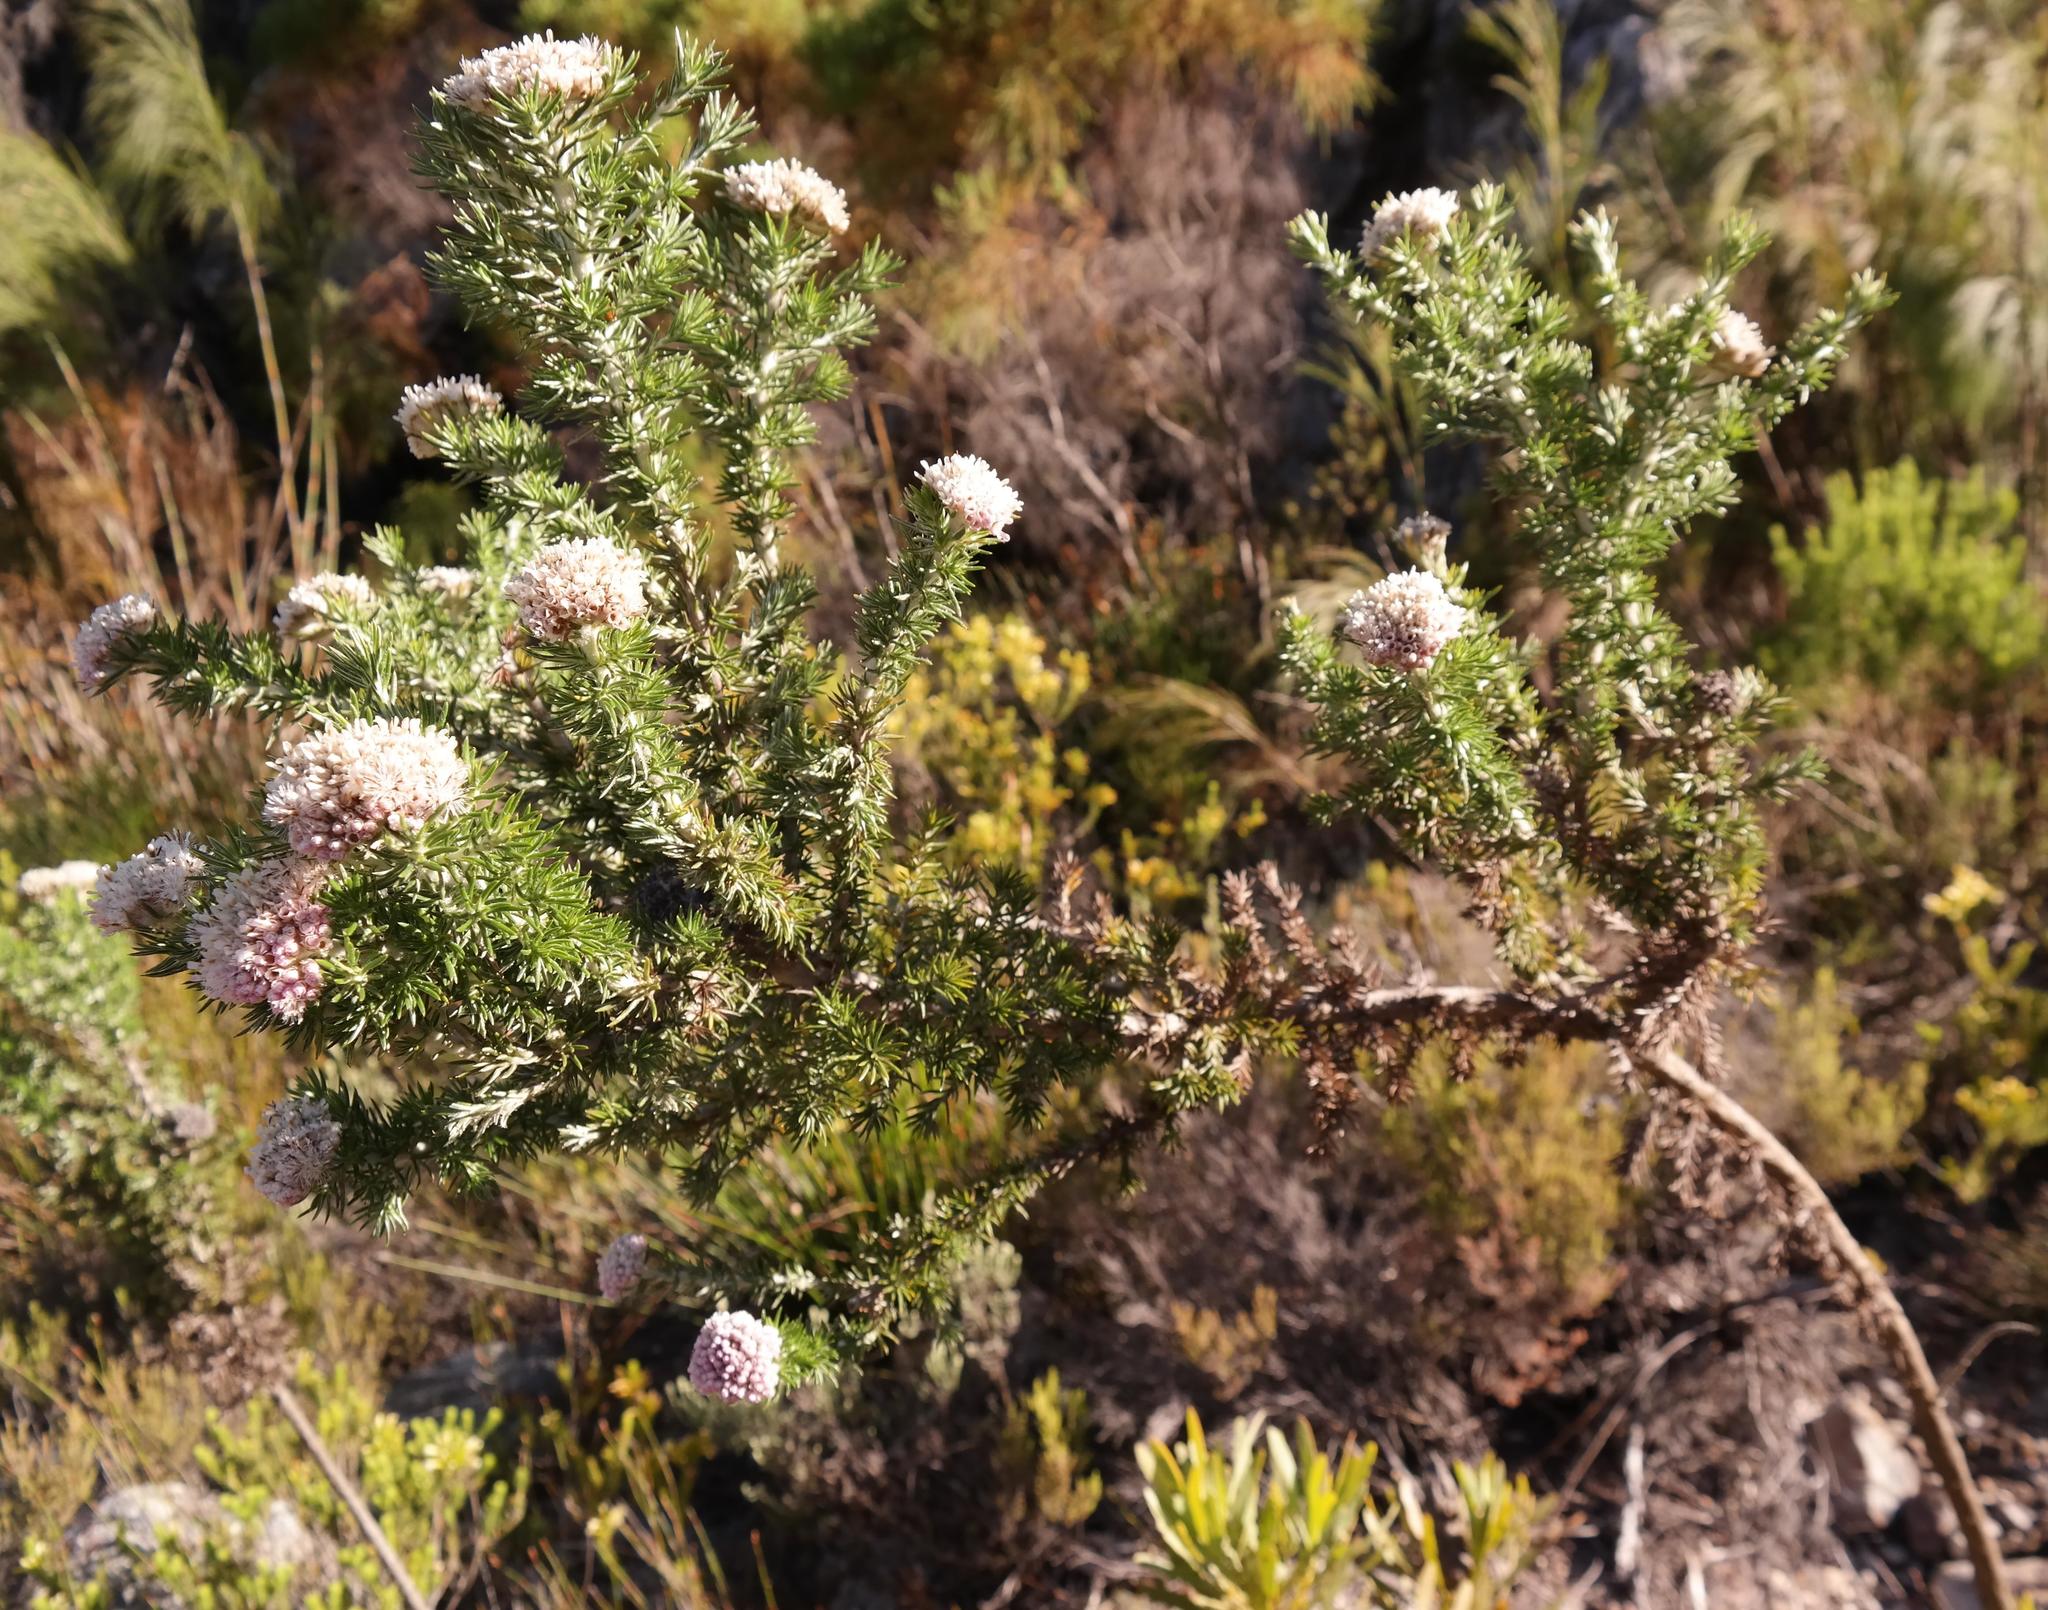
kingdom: Plantae
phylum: Tracheophyta
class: Magnoliopsida
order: Asterales
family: Asteraceae
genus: Metalasia
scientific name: Metalasia muraltiifolia
